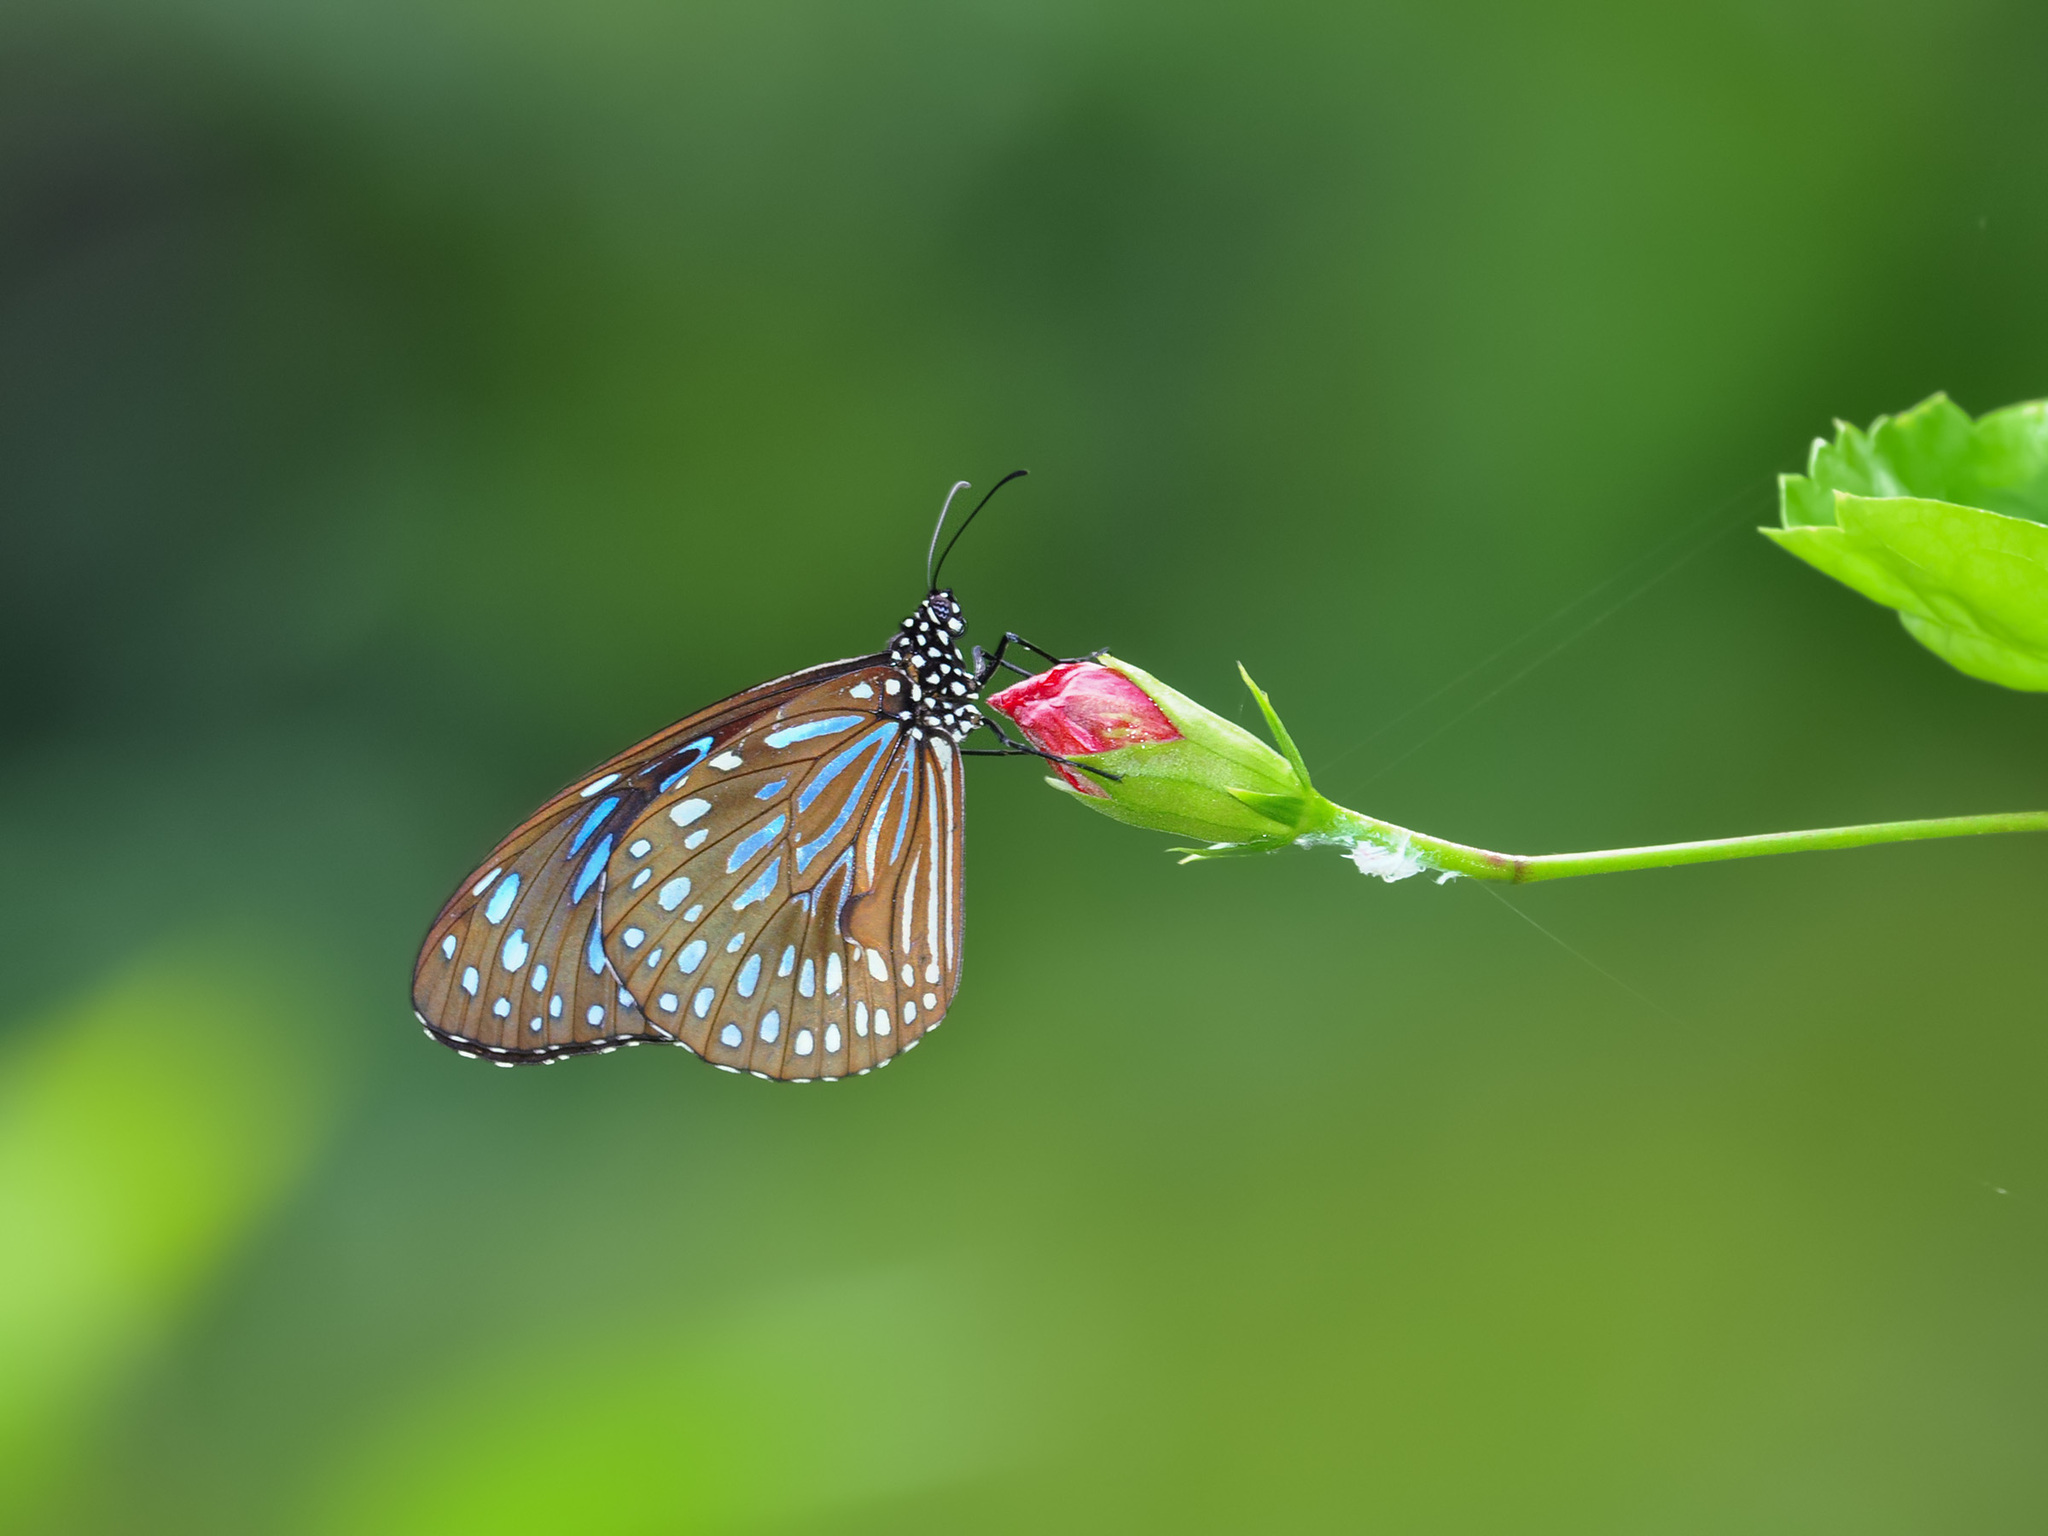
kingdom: Animalia
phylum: Arthropoda
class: Insecta
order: Lepidoptera
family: Nymphalidae
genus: Tirumala
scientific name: Tirumala septentrionis
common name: Dark blue tiger butterfly
